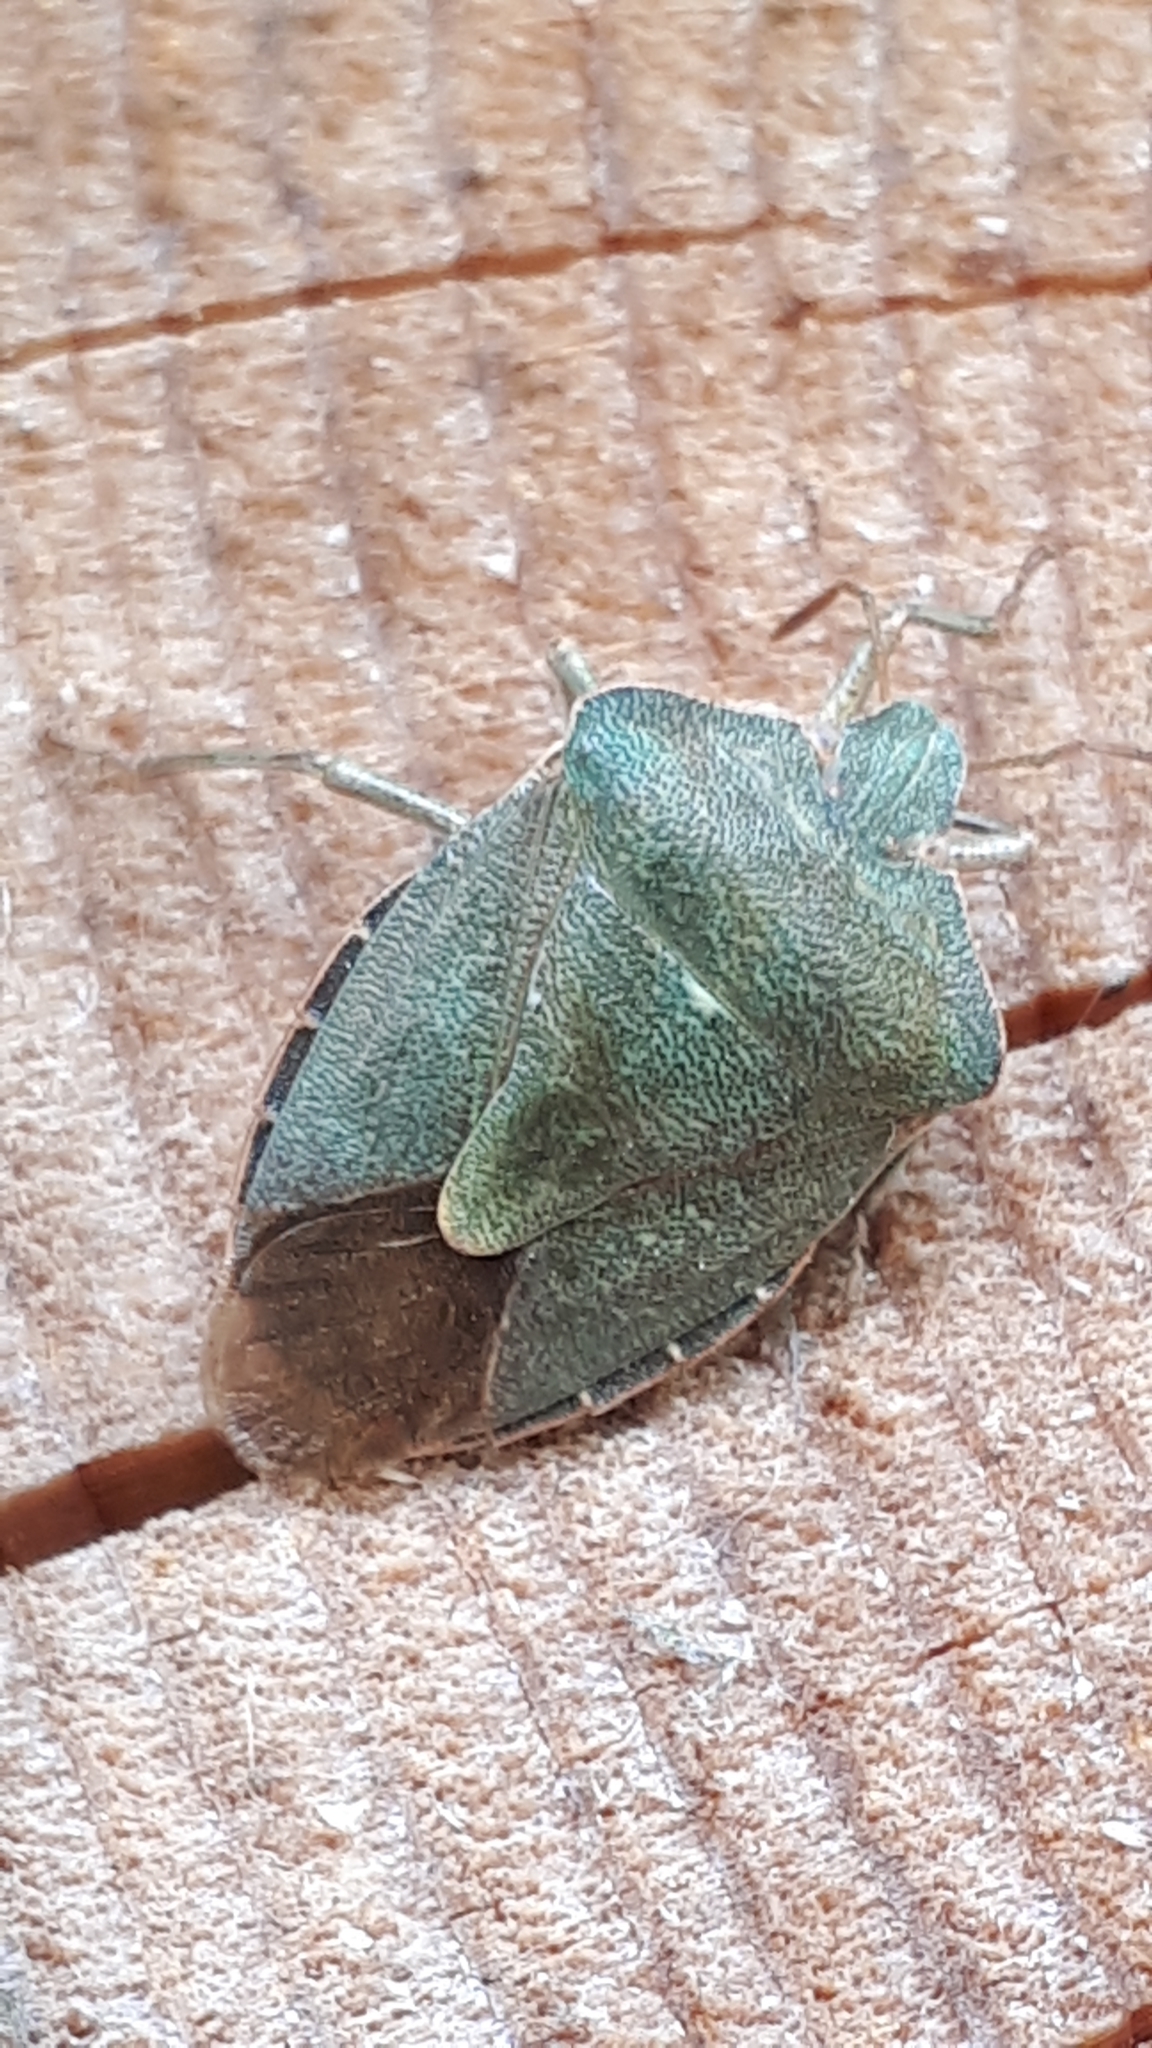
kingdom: Animalia
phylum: Arthropoda
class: Insecta
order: Hemiptera
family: Pentatomidae
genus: Palomena
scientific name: Palomena prasina
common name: Green shieldbug
